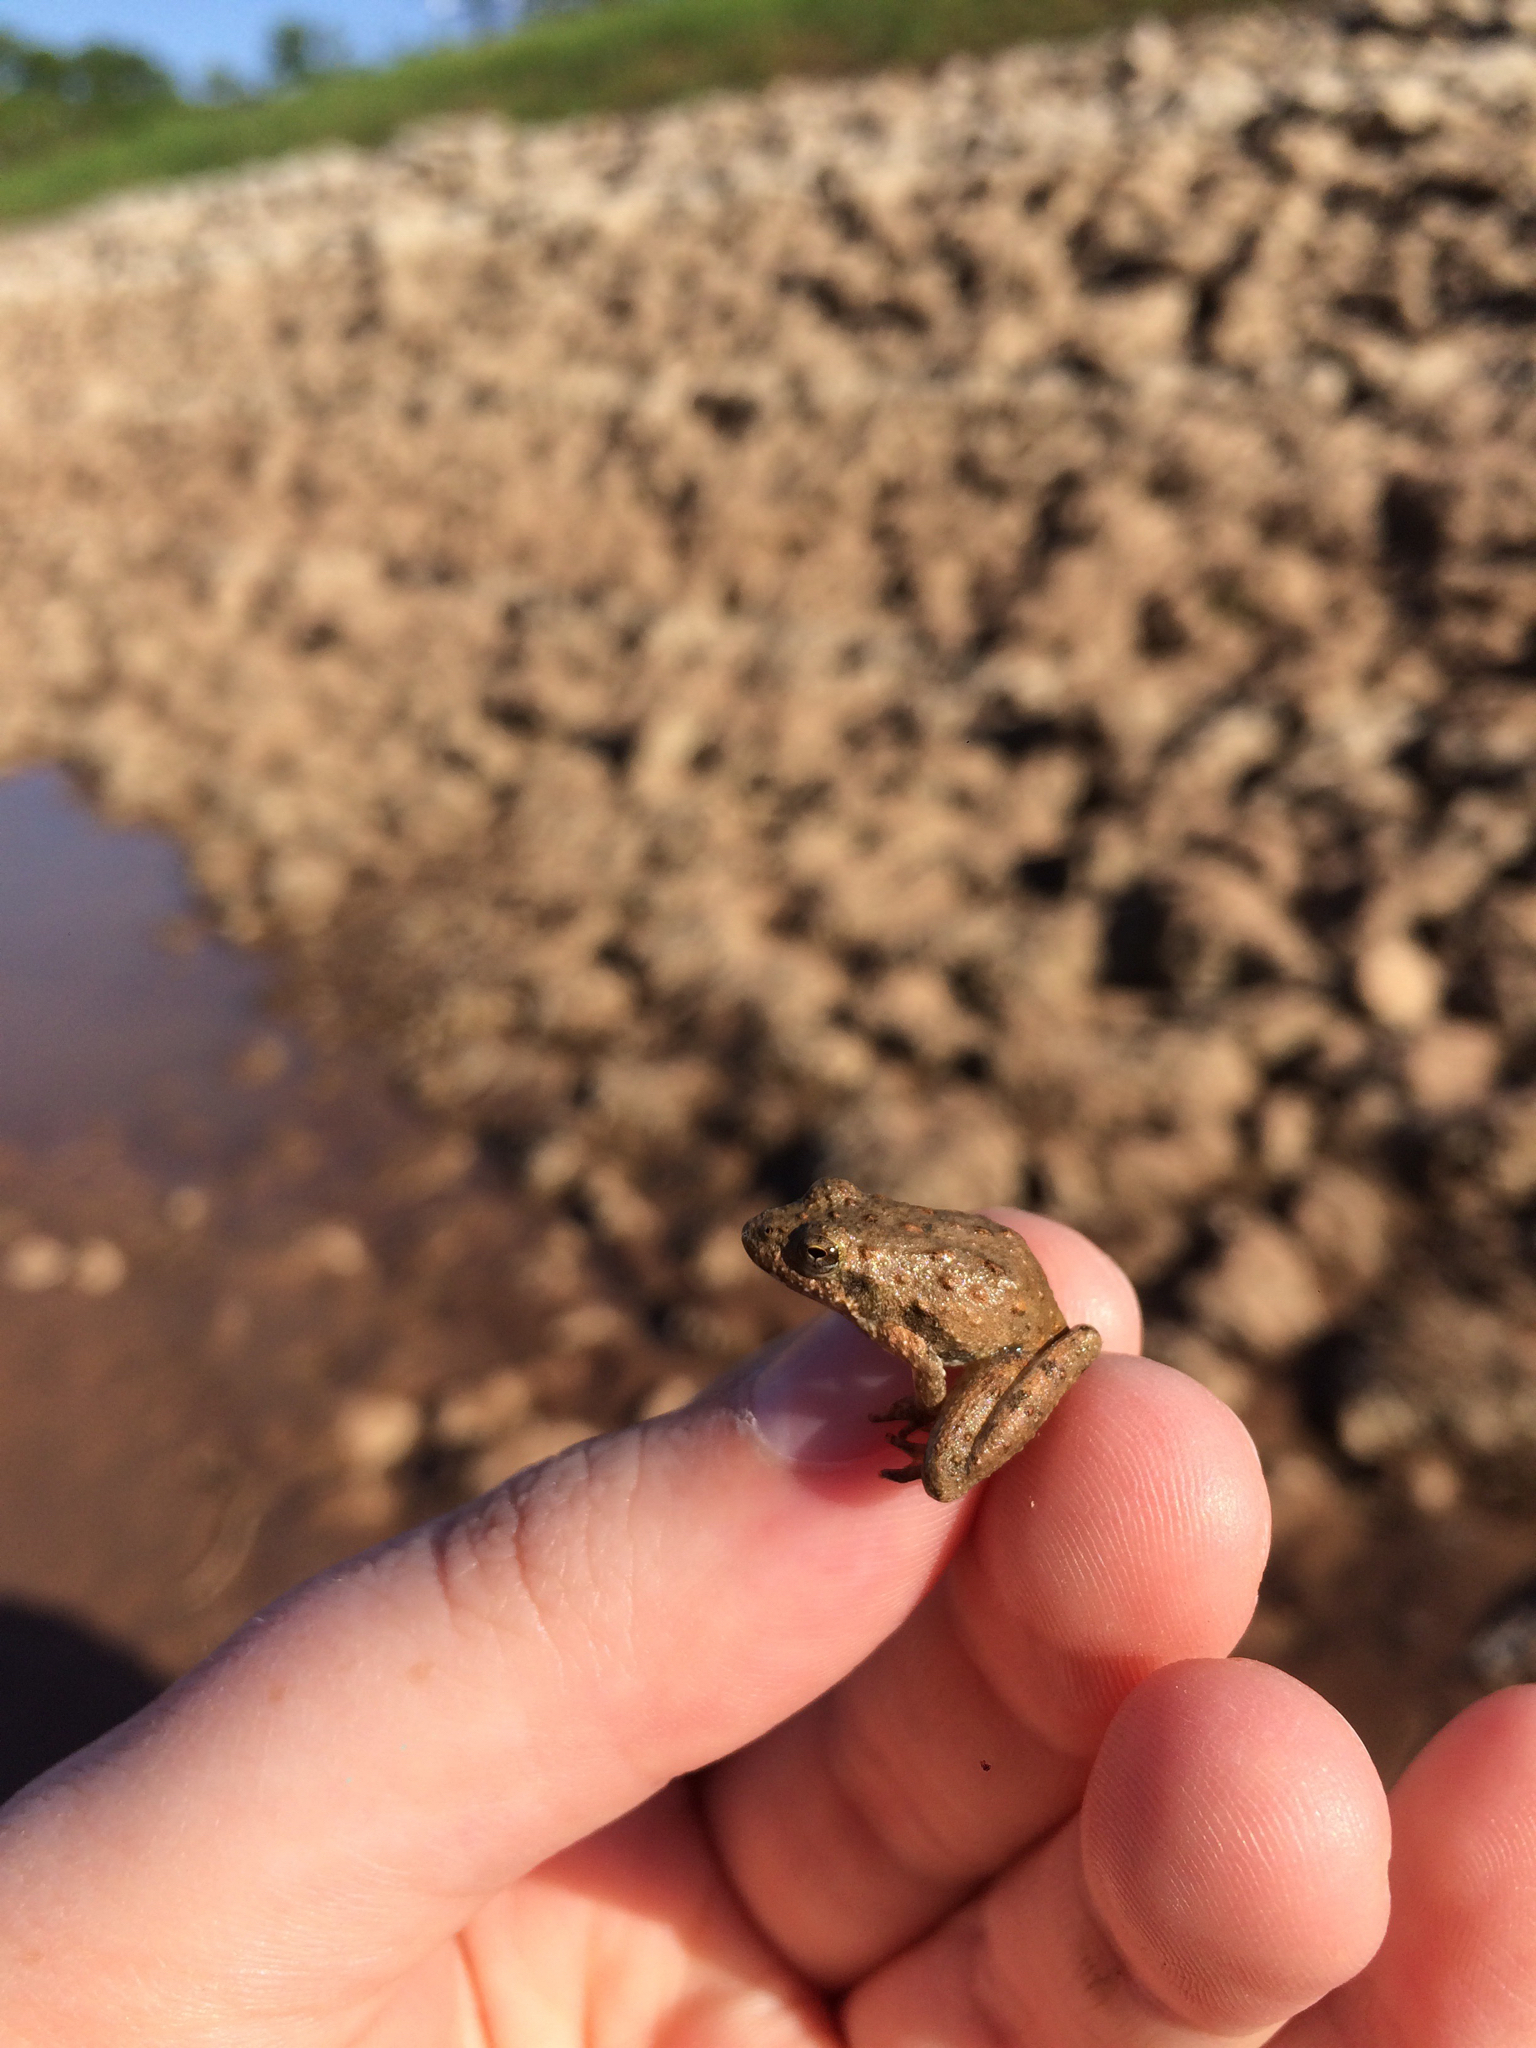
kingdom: Animalia
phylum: Chordata
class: Amphibia
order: Anura
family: Hylidae
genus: Acris
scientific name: Acris blanchardi
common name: Blanchard's cricket frog
